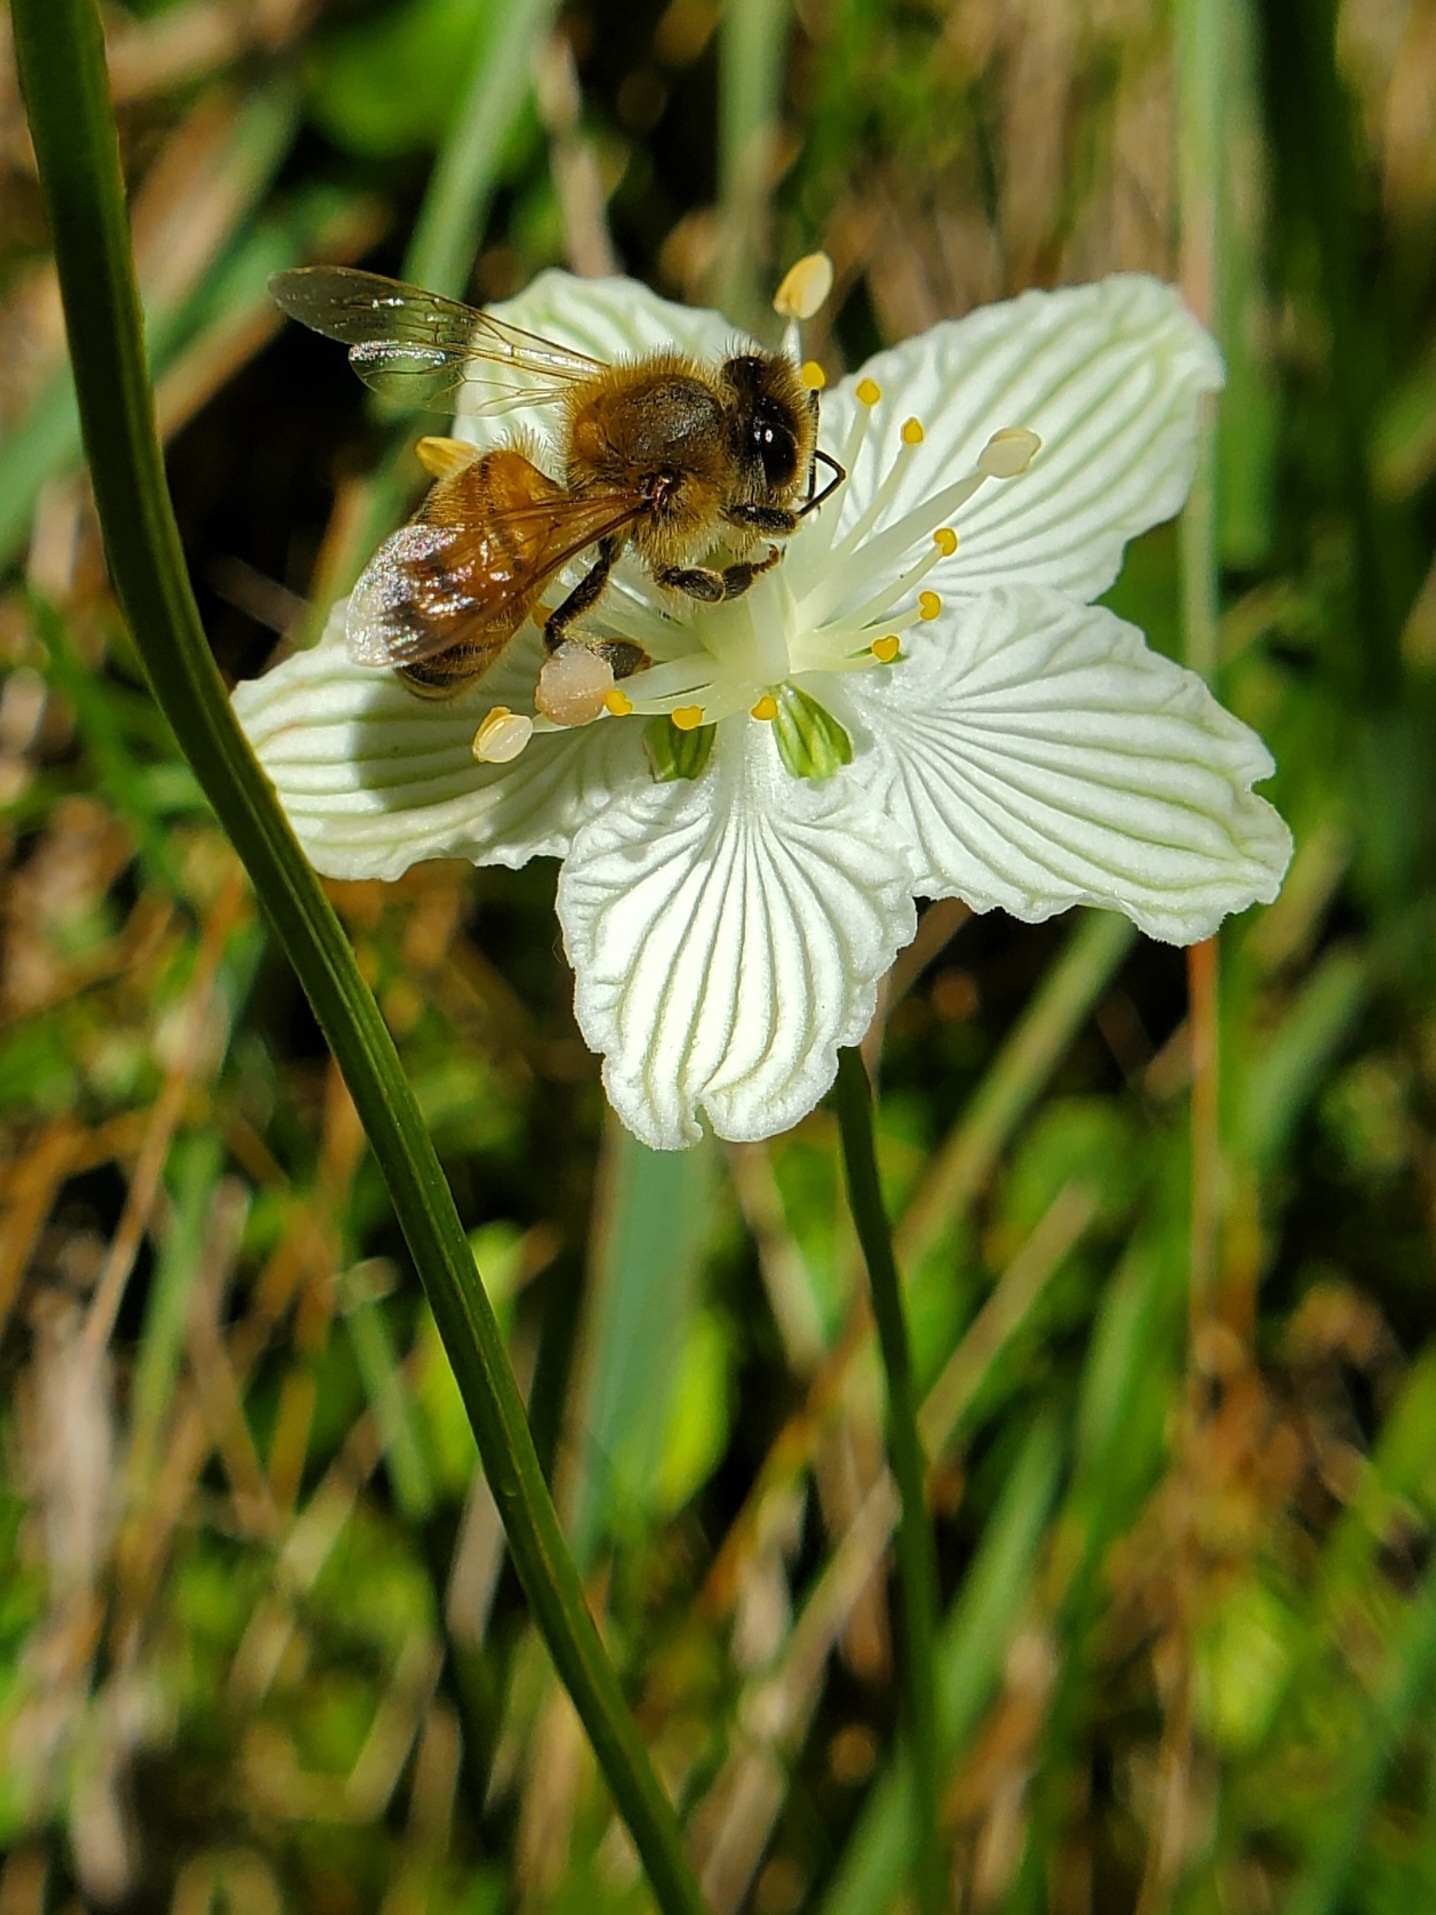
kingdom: Animalia
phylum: Arthropoda
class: Insecta
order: Hymenoptera
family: Apidae
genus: Apis
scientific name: Apis mellifera
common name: Honey bee
